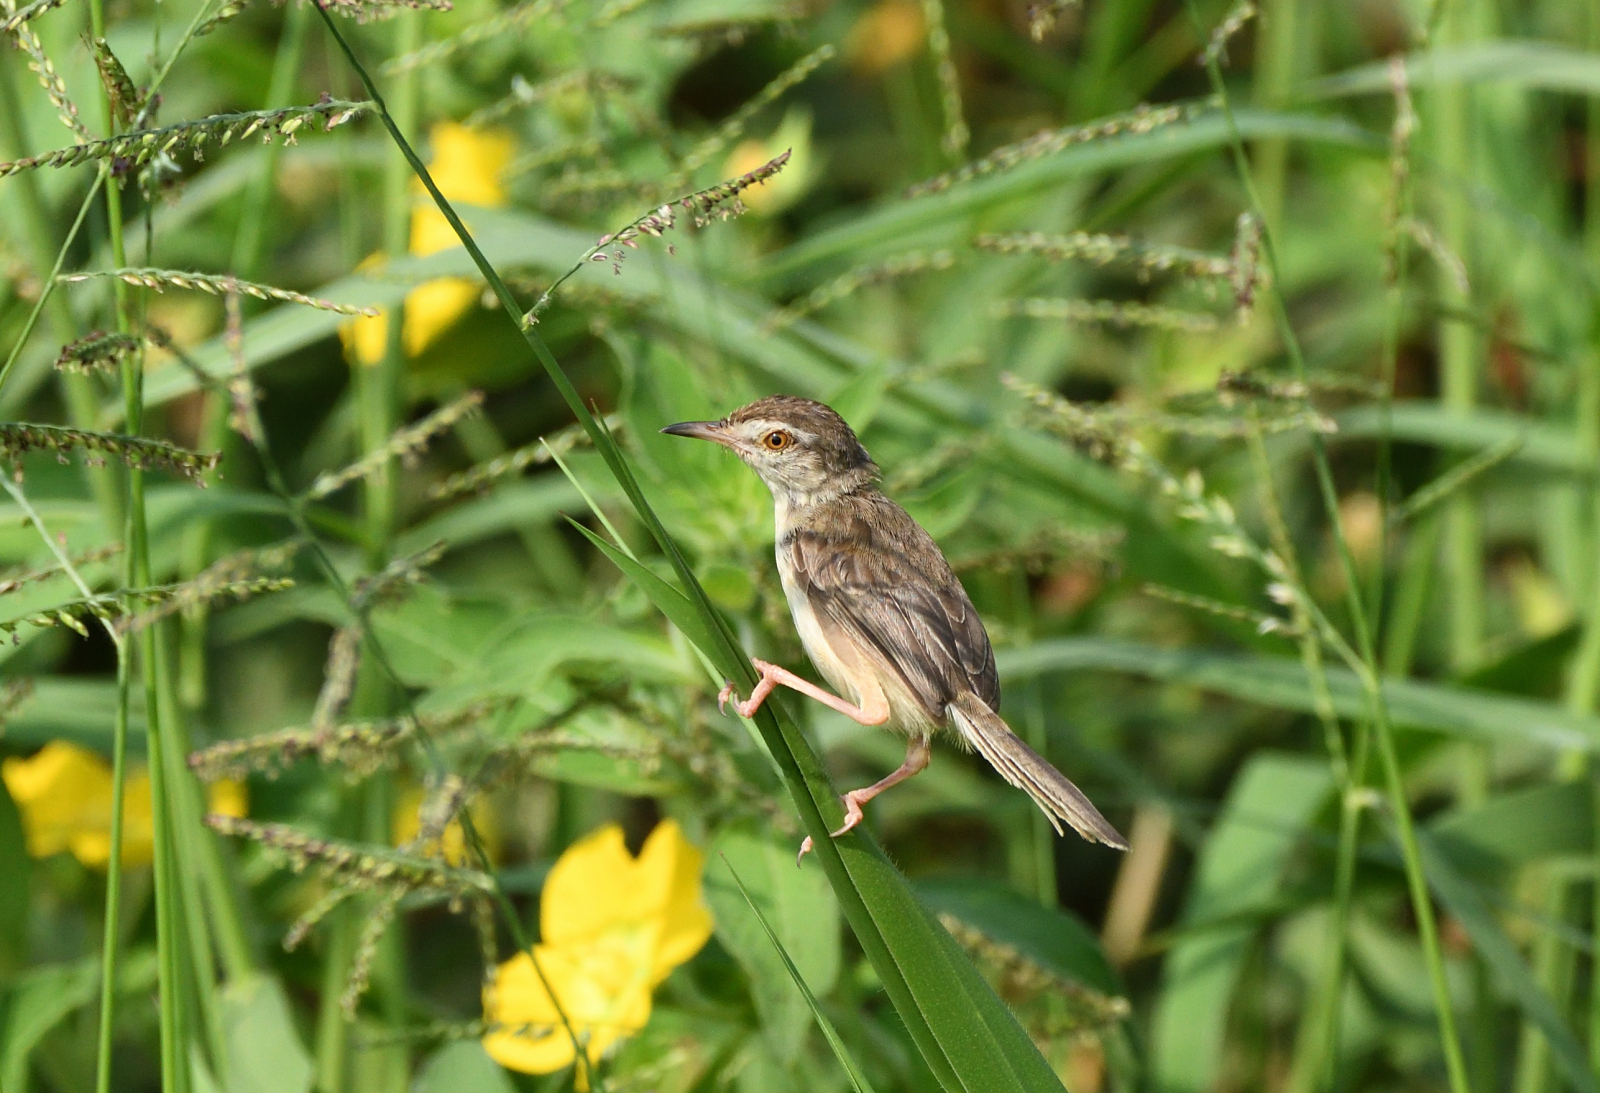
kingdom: Animalia
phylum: Chordata
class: Aves
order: Passeriformes
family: Cisticolidae
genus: Prinia
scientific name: Prinia inornata
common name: Plain prinia
